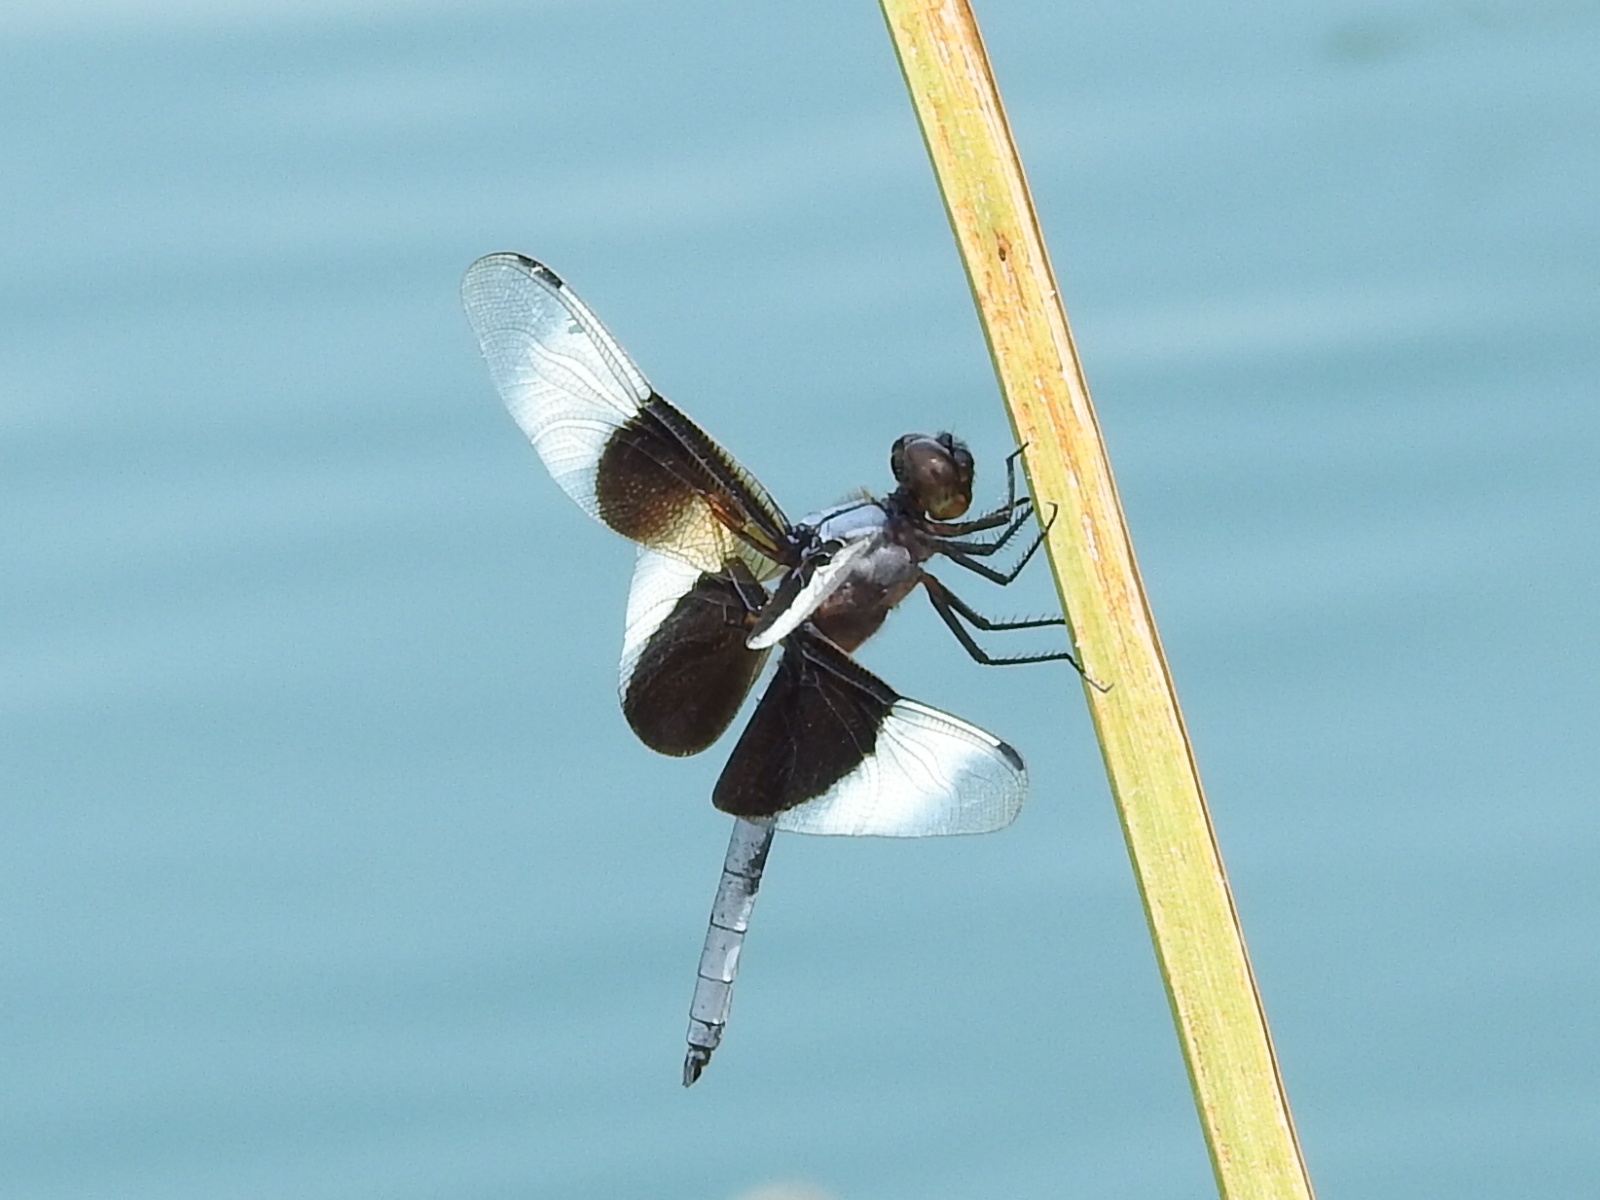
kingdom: Animalia
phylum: Arthropoda
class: Insecta
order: Odonata
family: Libellulidae
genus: Libellula
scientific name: Libellula luctuosa
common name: Widow skimmer
